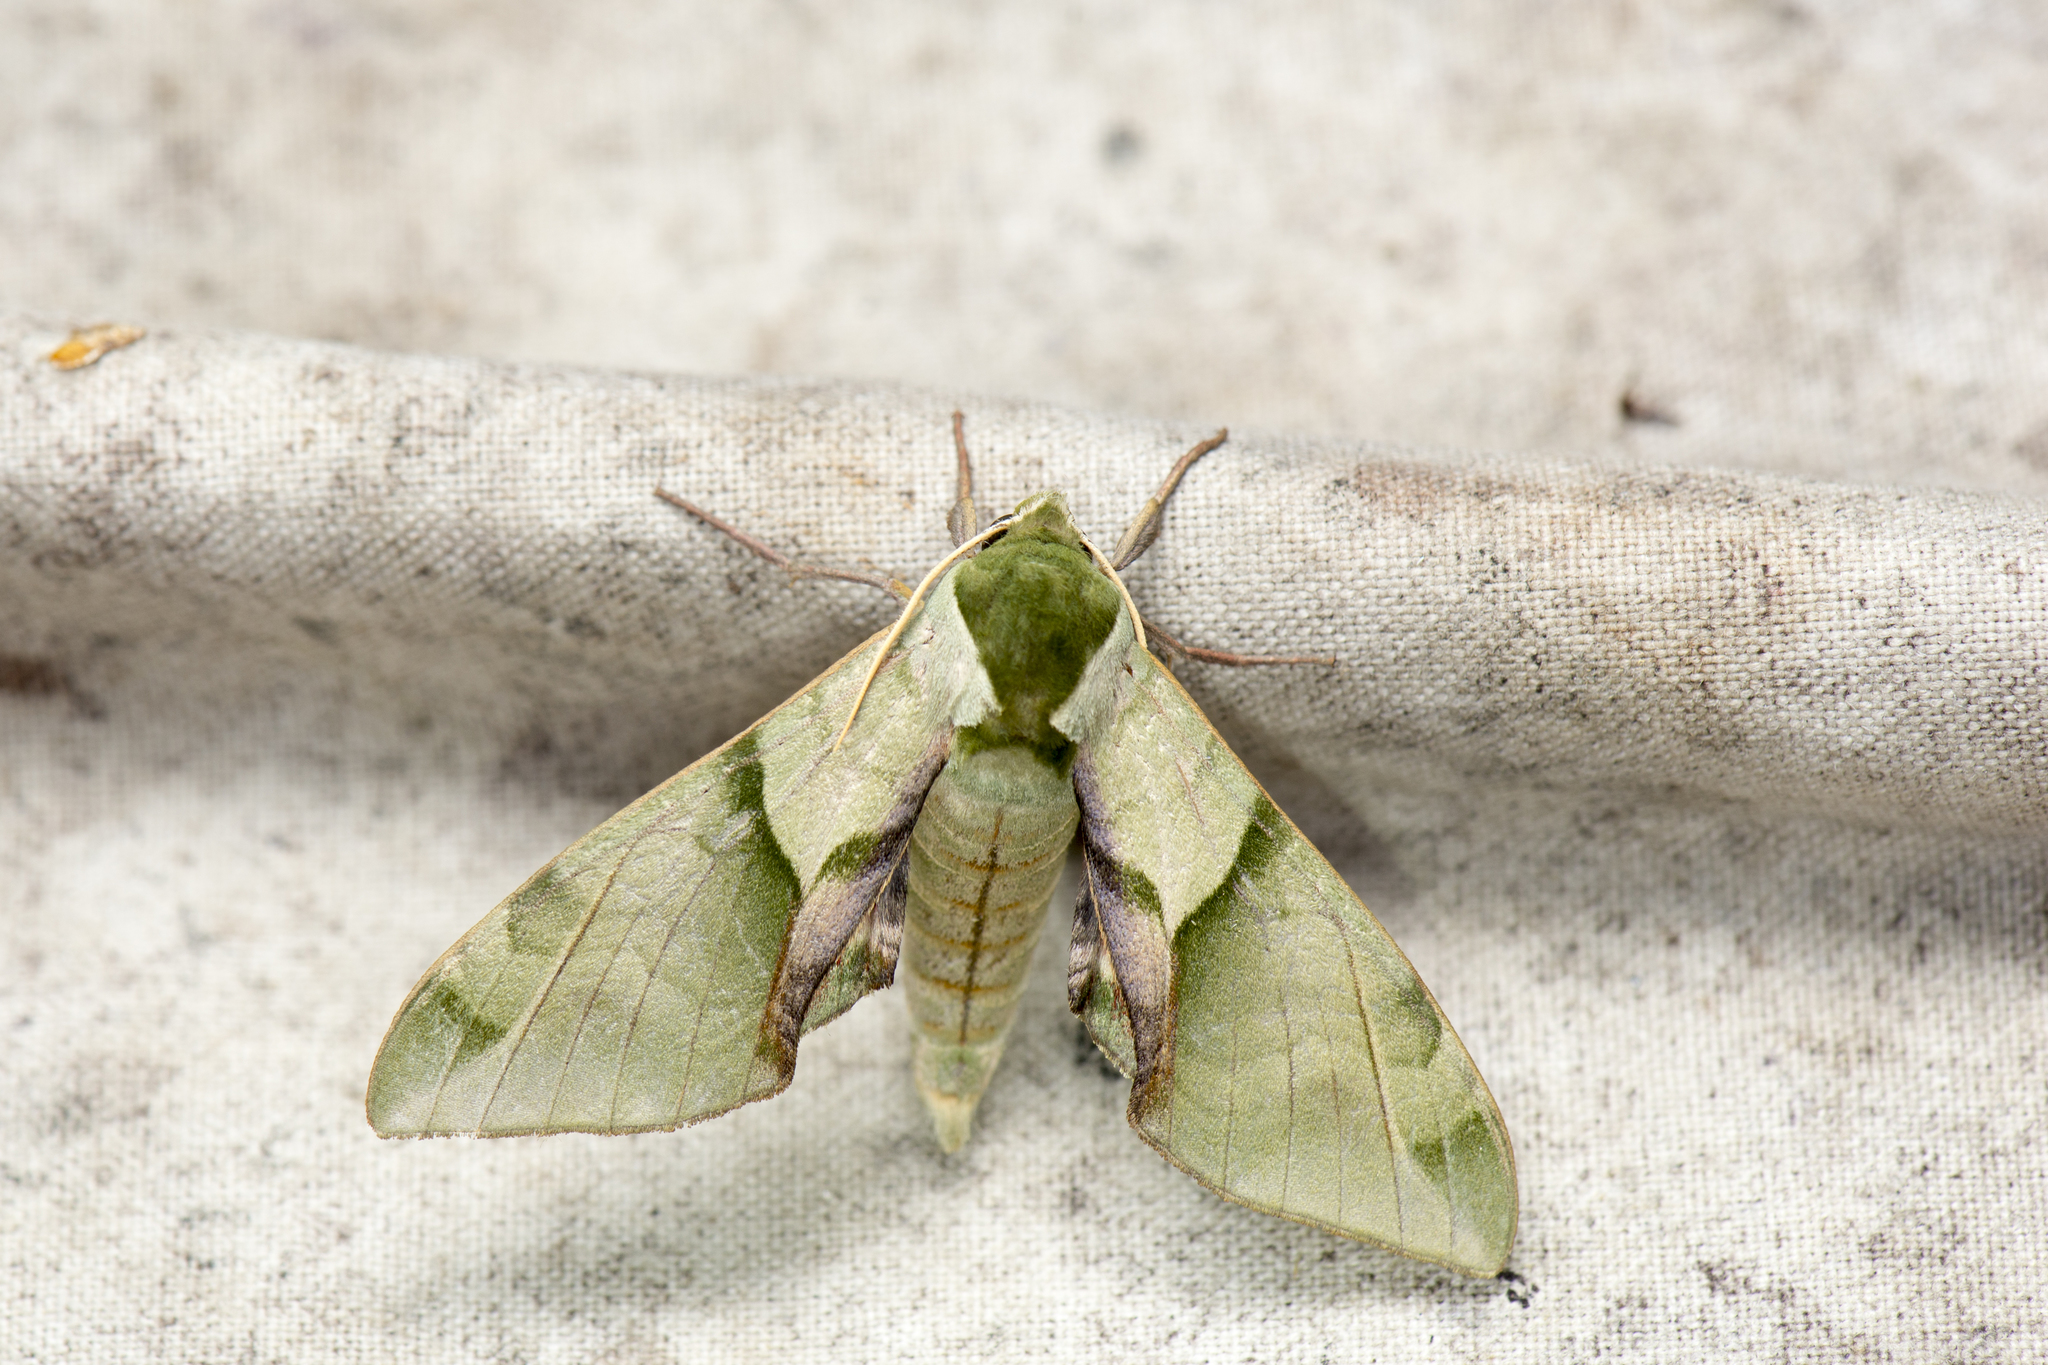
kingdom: Animalia
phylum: Arthropoda
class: Insecta
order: Lepidoptera
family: Sphingidae
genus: Callambulyx
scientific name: Callambulyx tatarinovii
